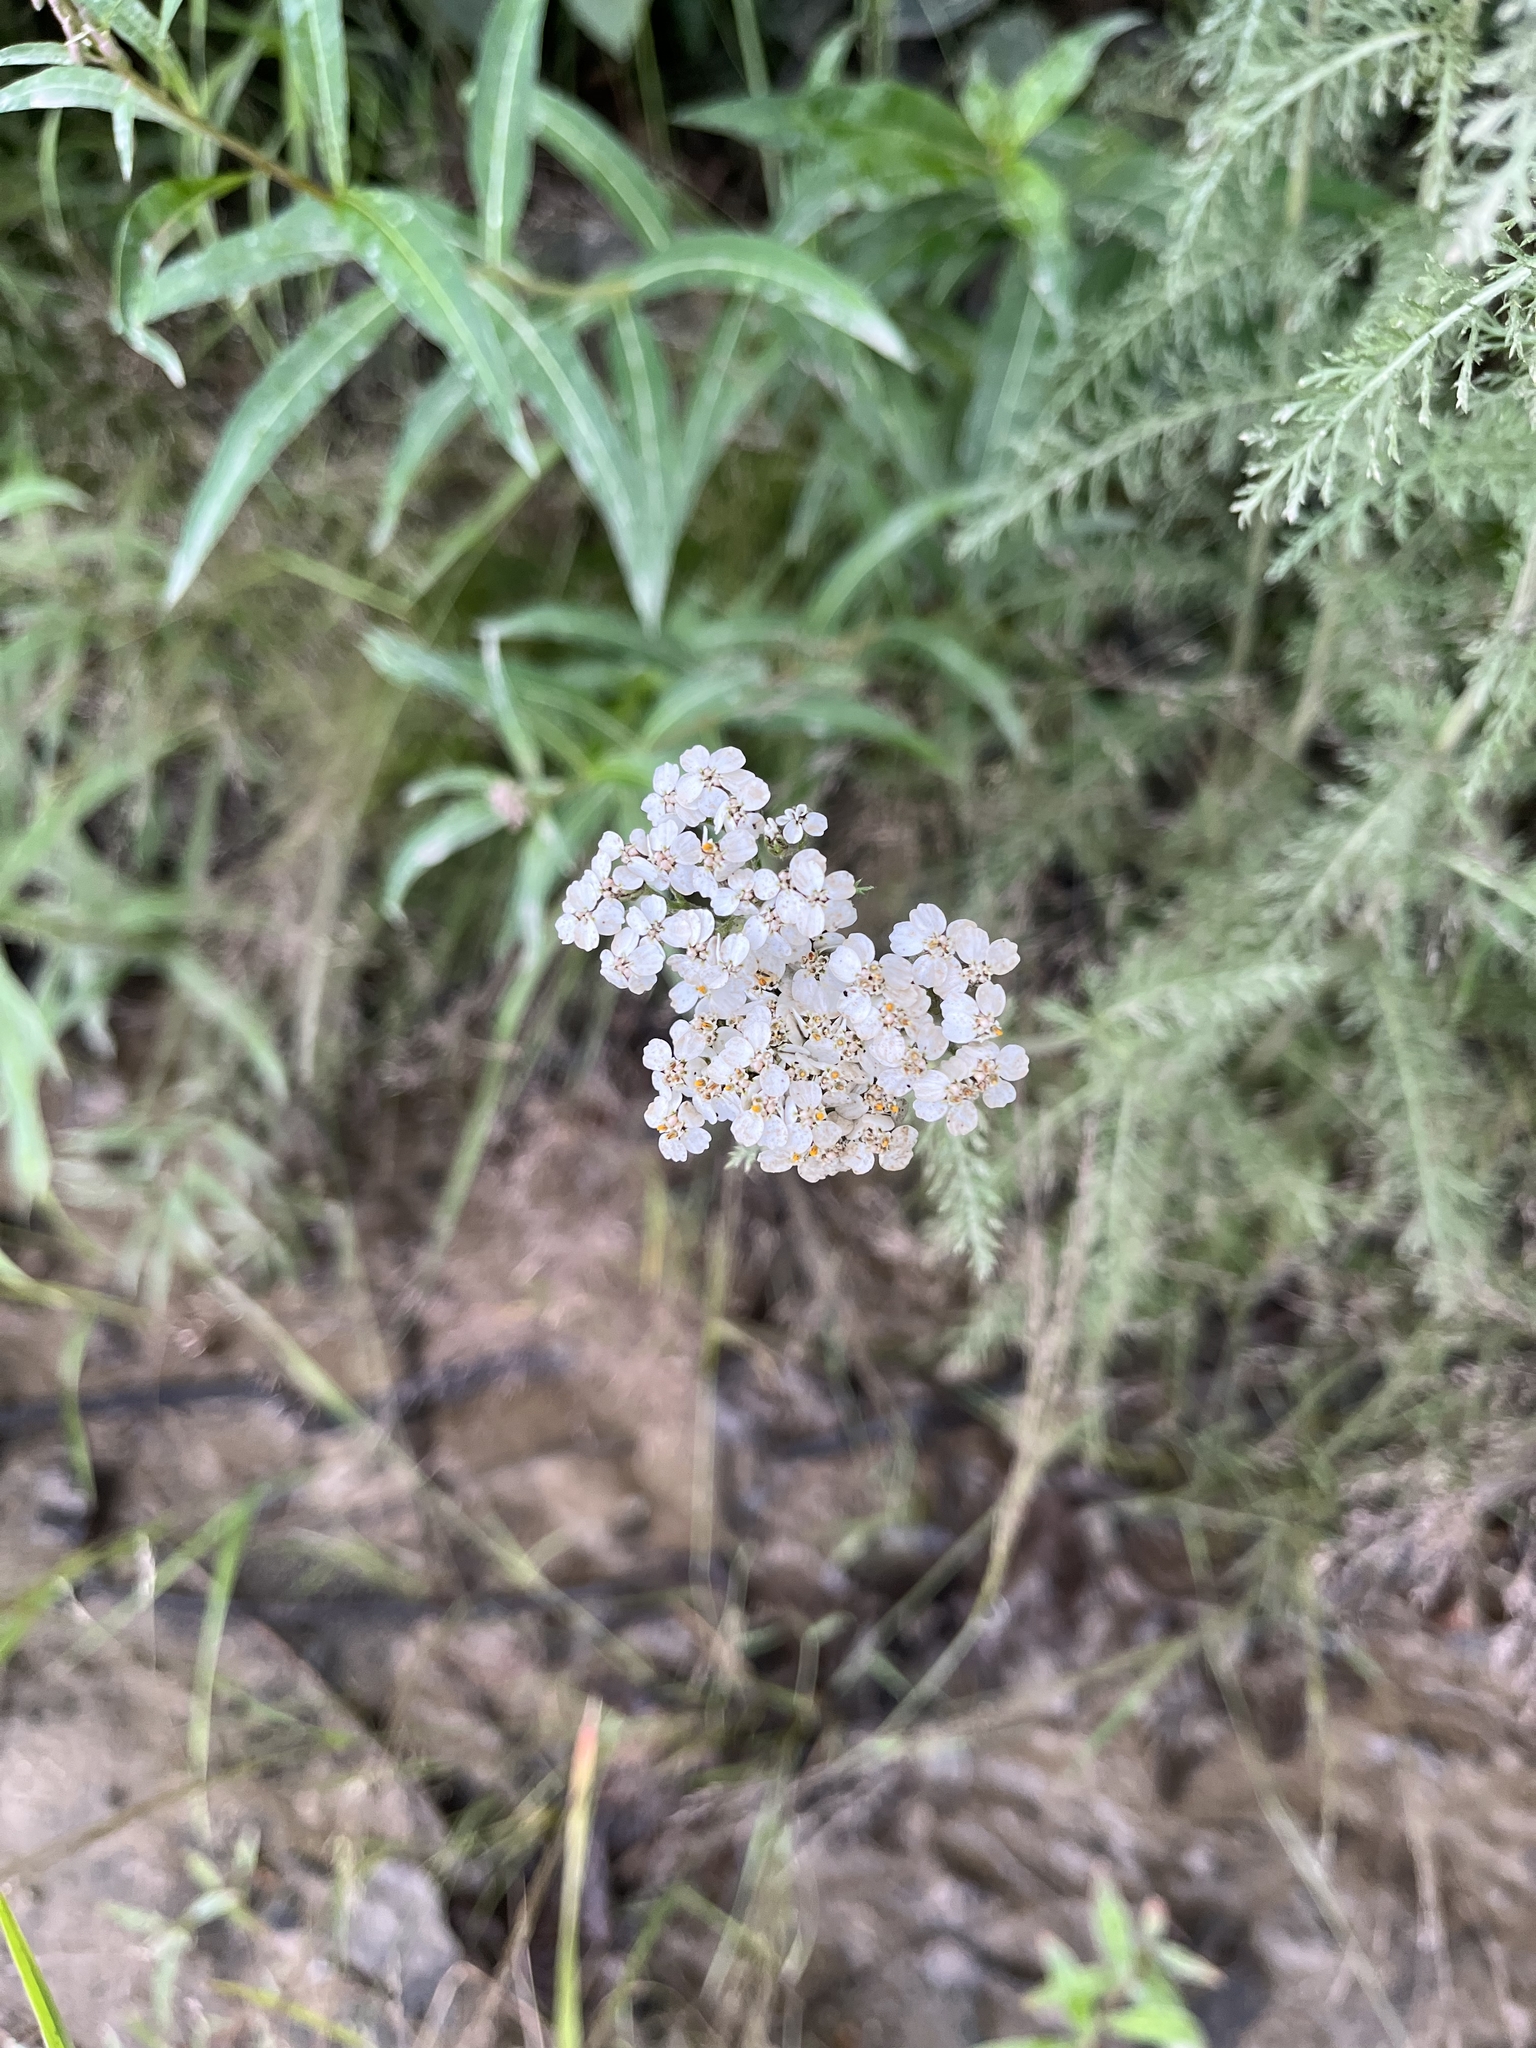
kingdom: Plantae
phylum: Tracheophyta
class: Magnoliopsida
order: Asterales
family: Asteraceae
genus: Achillea
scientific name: Achillea millefolium
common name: Yarrow
